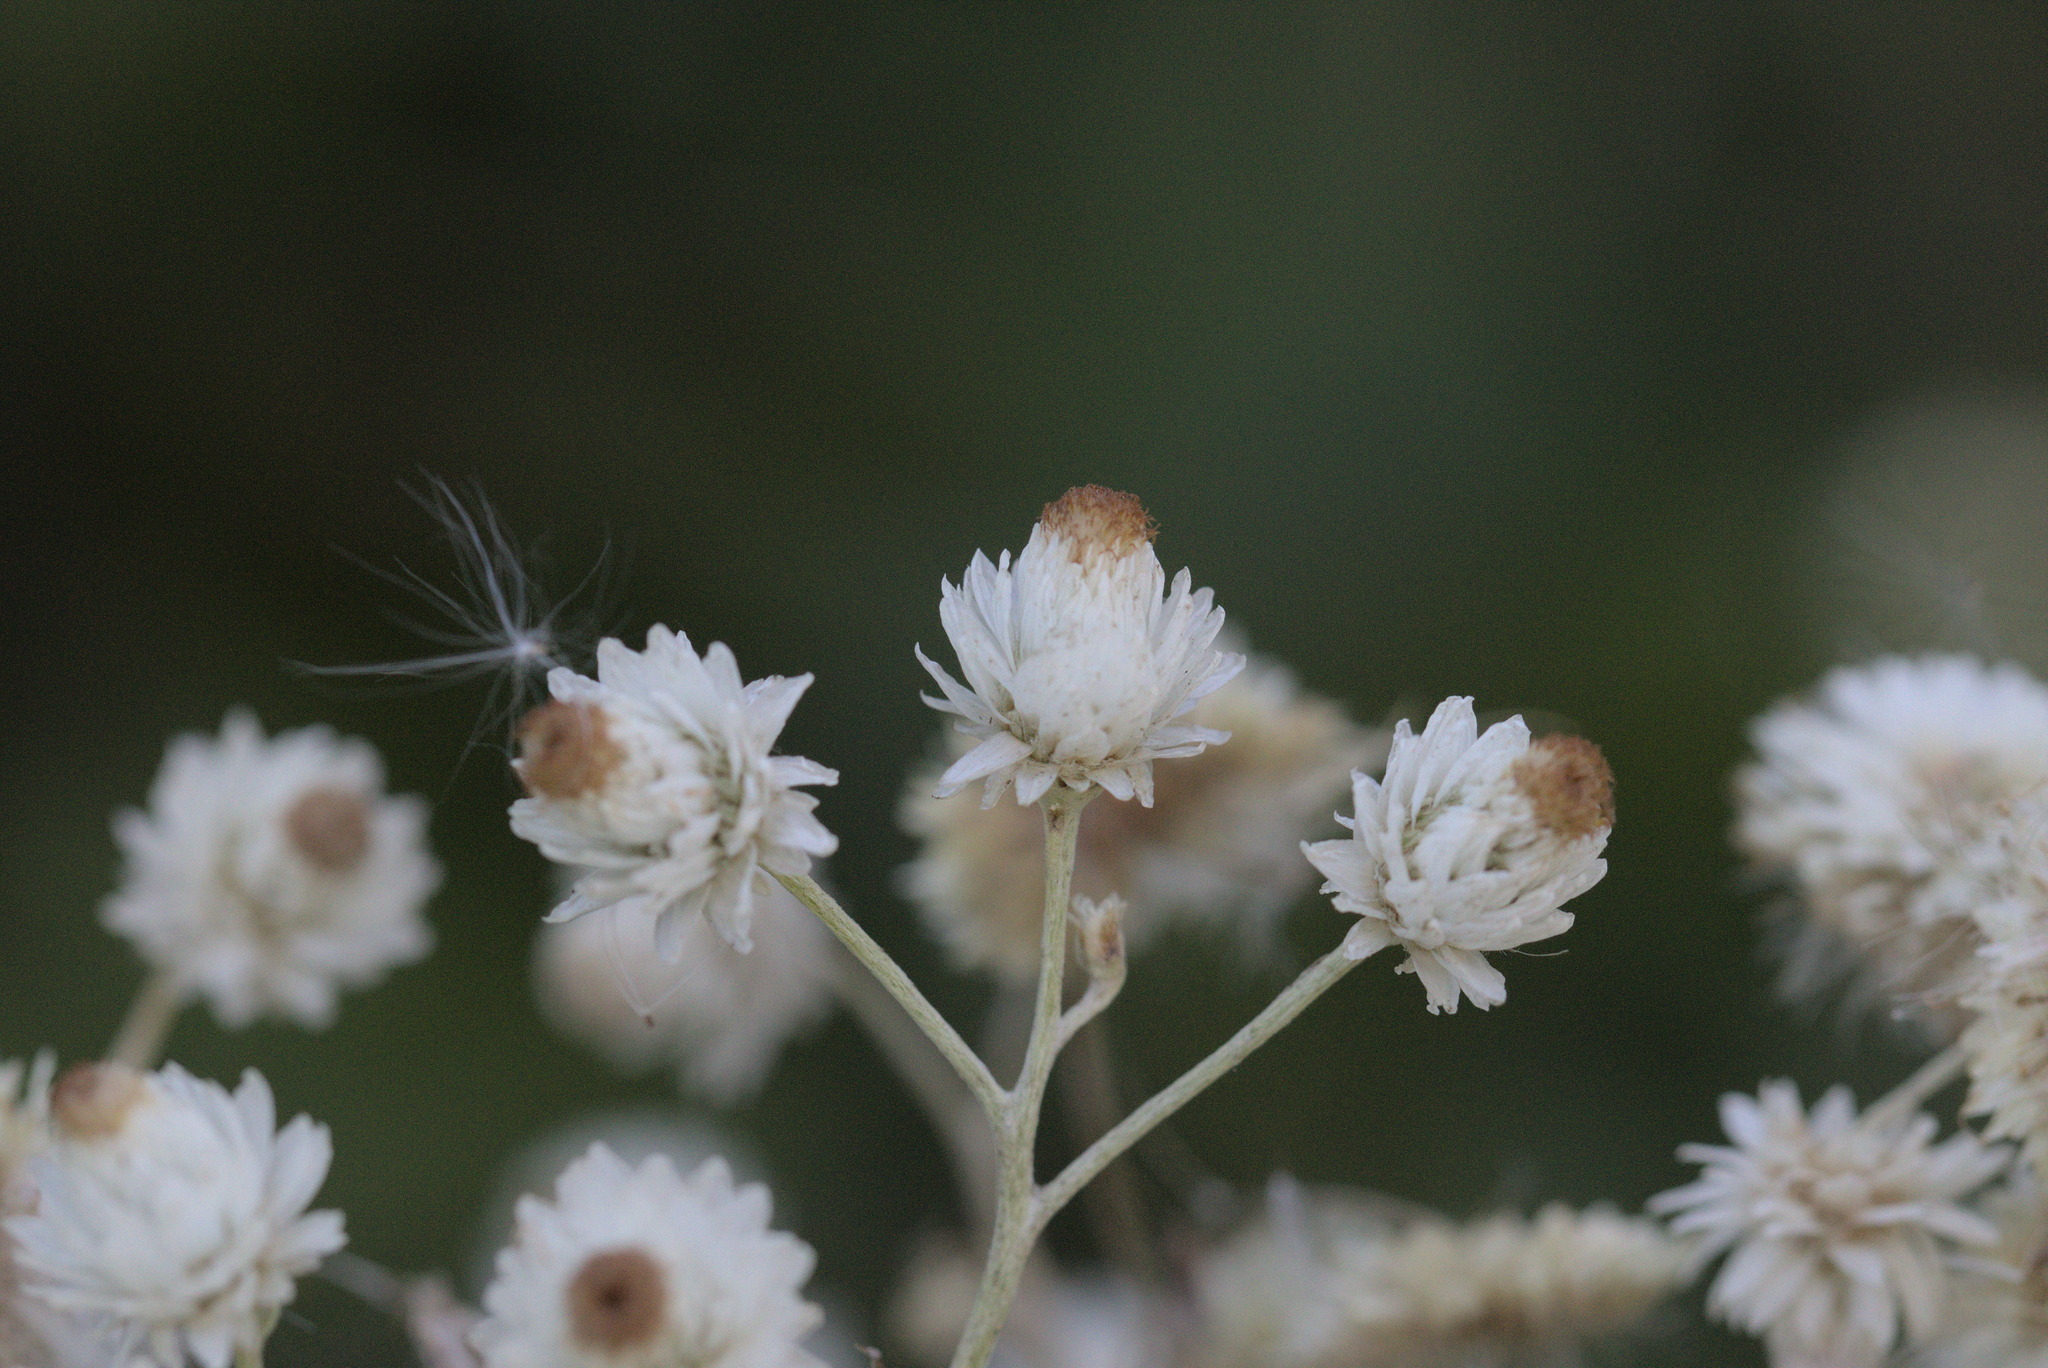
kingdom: Plantae
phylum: Tracheophyta
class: Magnoliopsida
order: Asterales
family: Asteraceae
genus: Anaphalis
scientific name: Anaphalis margaritacea
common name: Pearly everlasting
